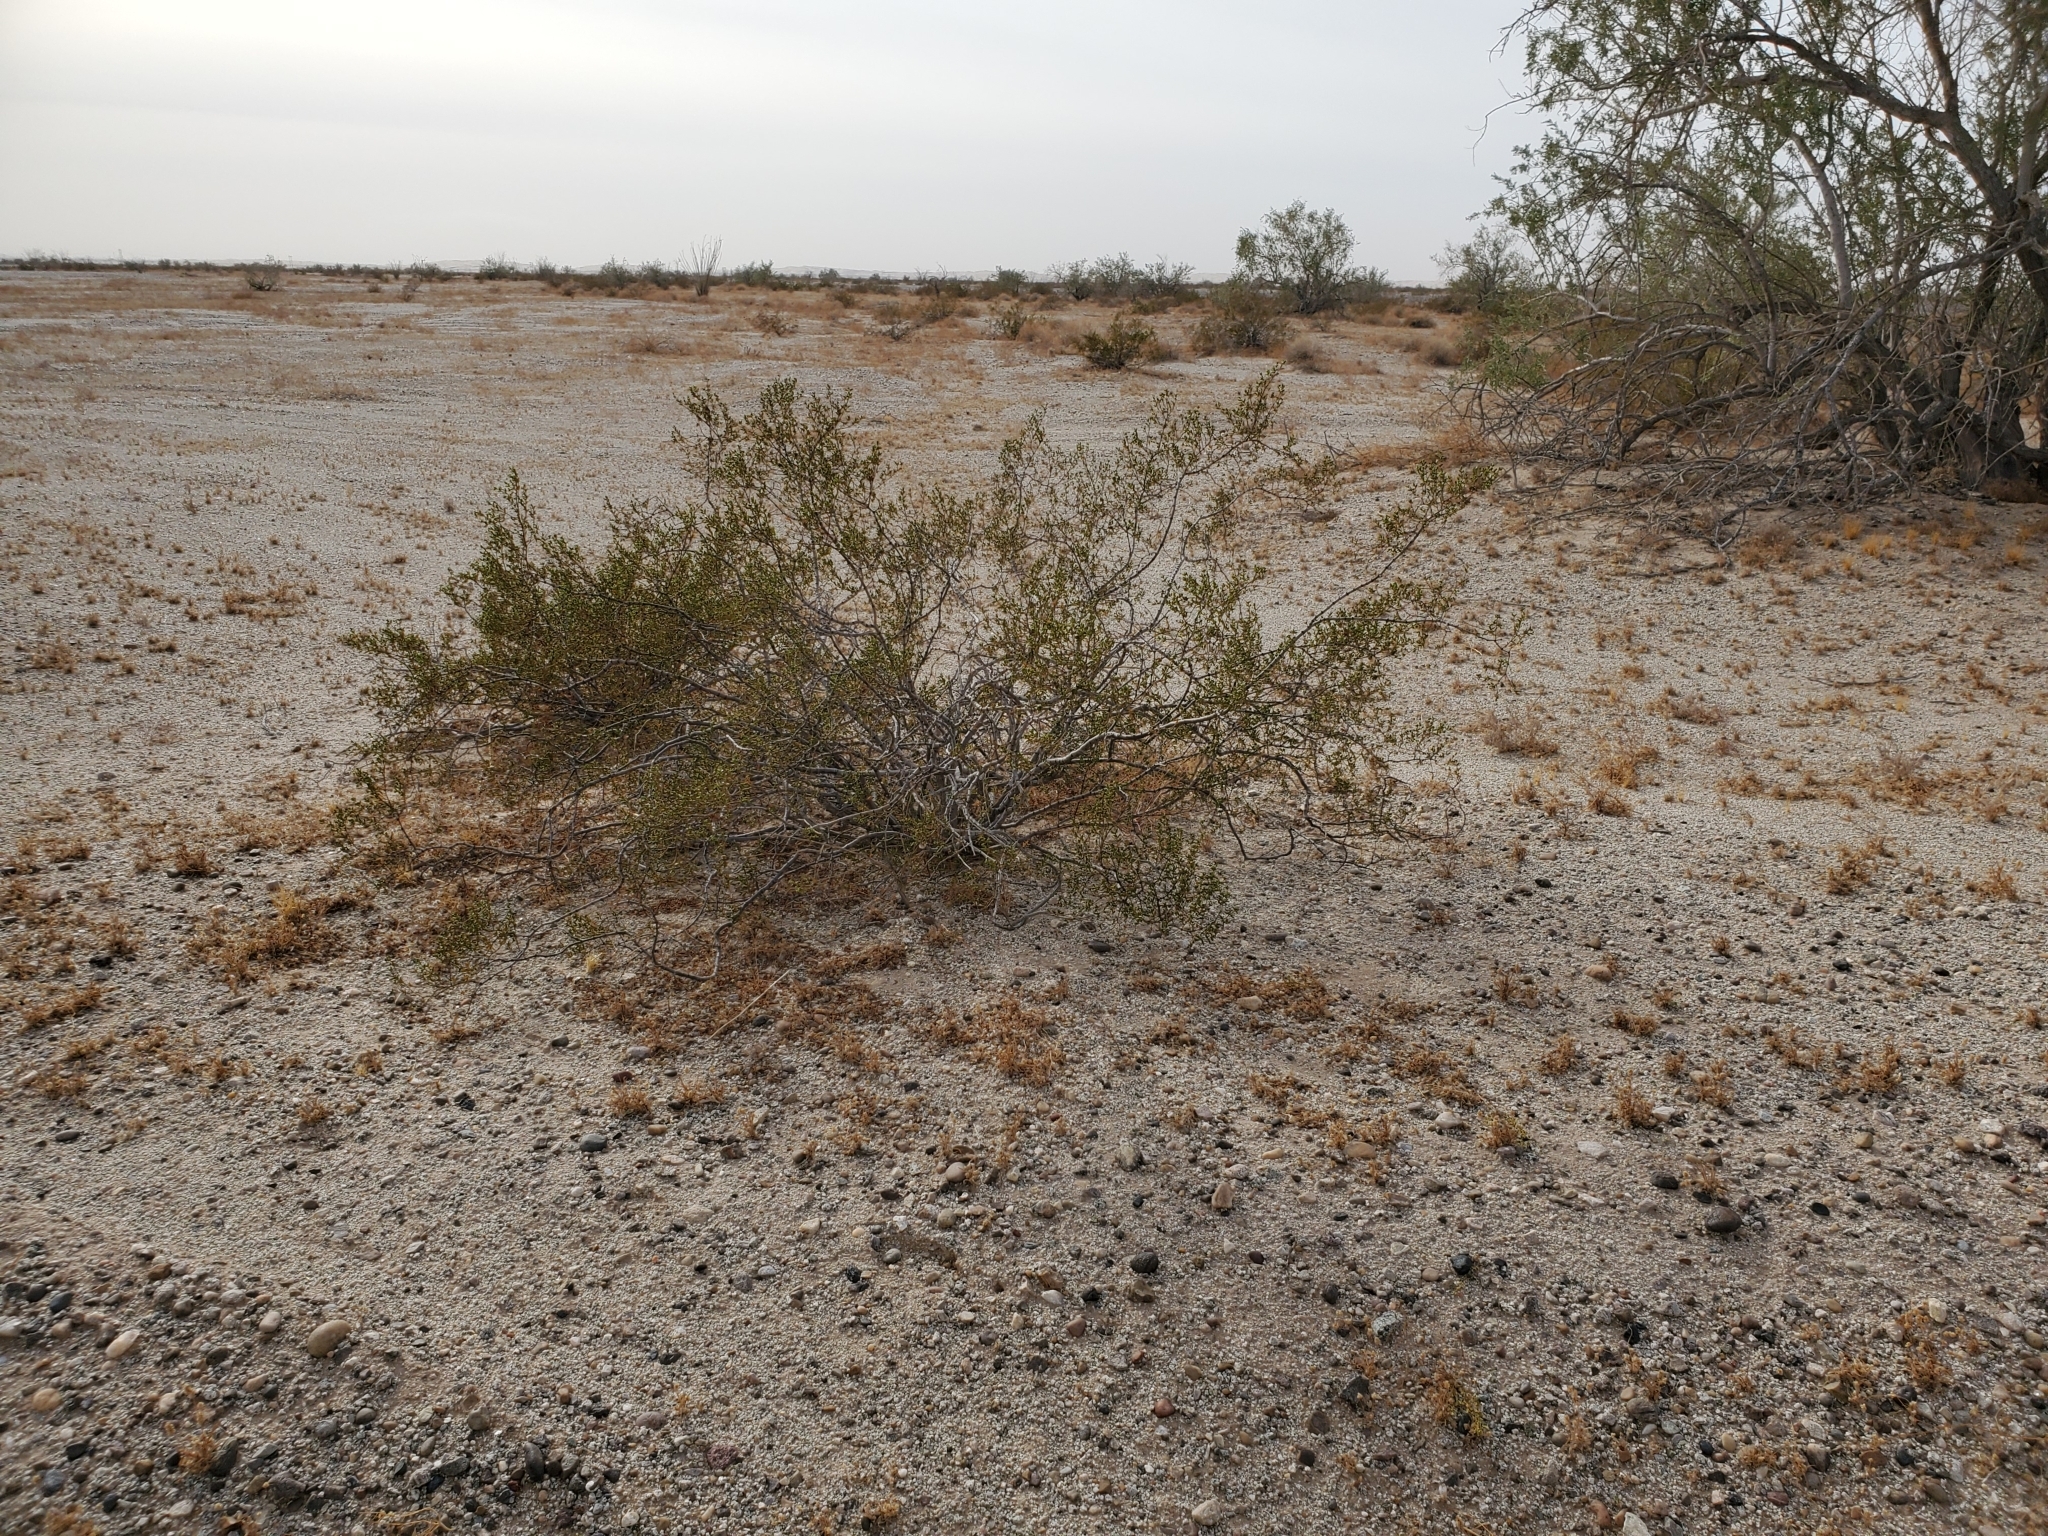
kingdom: Plantae
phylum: Tracheophyta
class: Magnoliopsida
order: Zygophyllales
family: Zygophyllaceae
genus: Larrea
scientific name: Larrea tridentata
